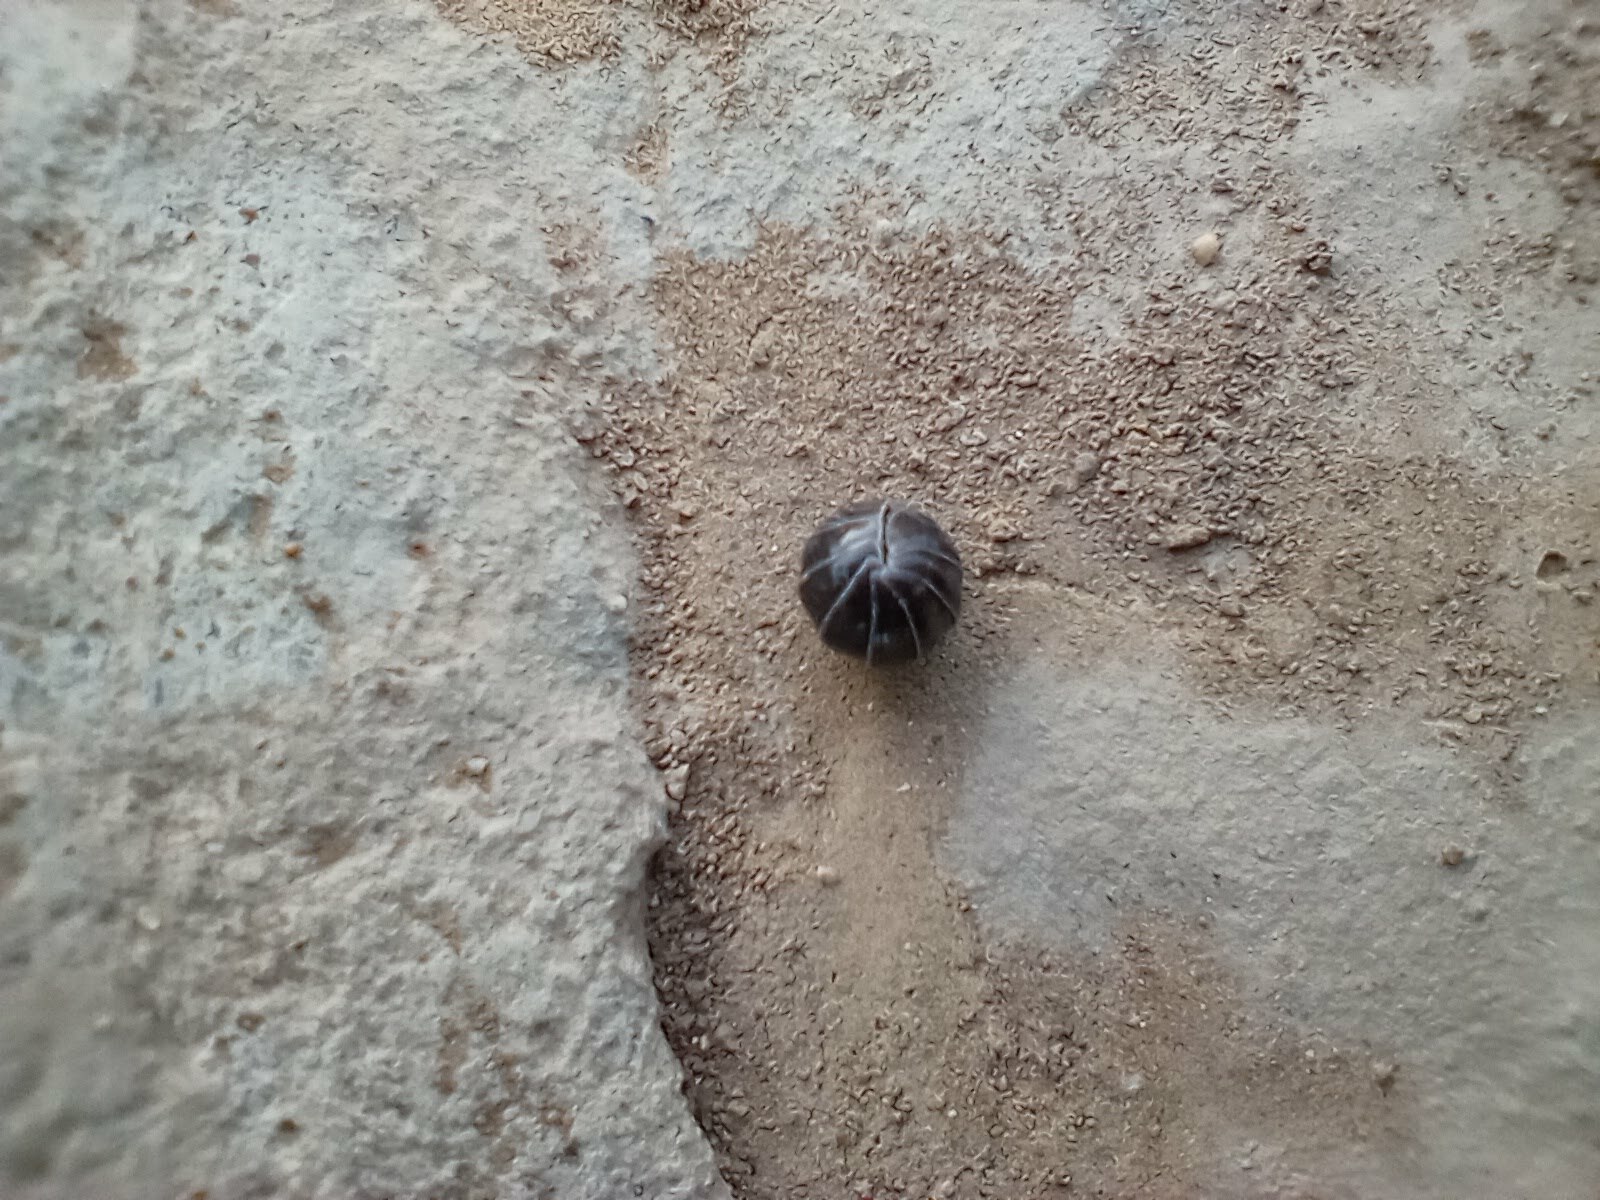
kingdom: Animalia
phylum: Arthropoda
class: Malacostraca
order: Isopoda
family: Armadillidiidae
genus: Armadillidium
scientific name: Armadillidium vulgare
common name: Common pill woodlouse
